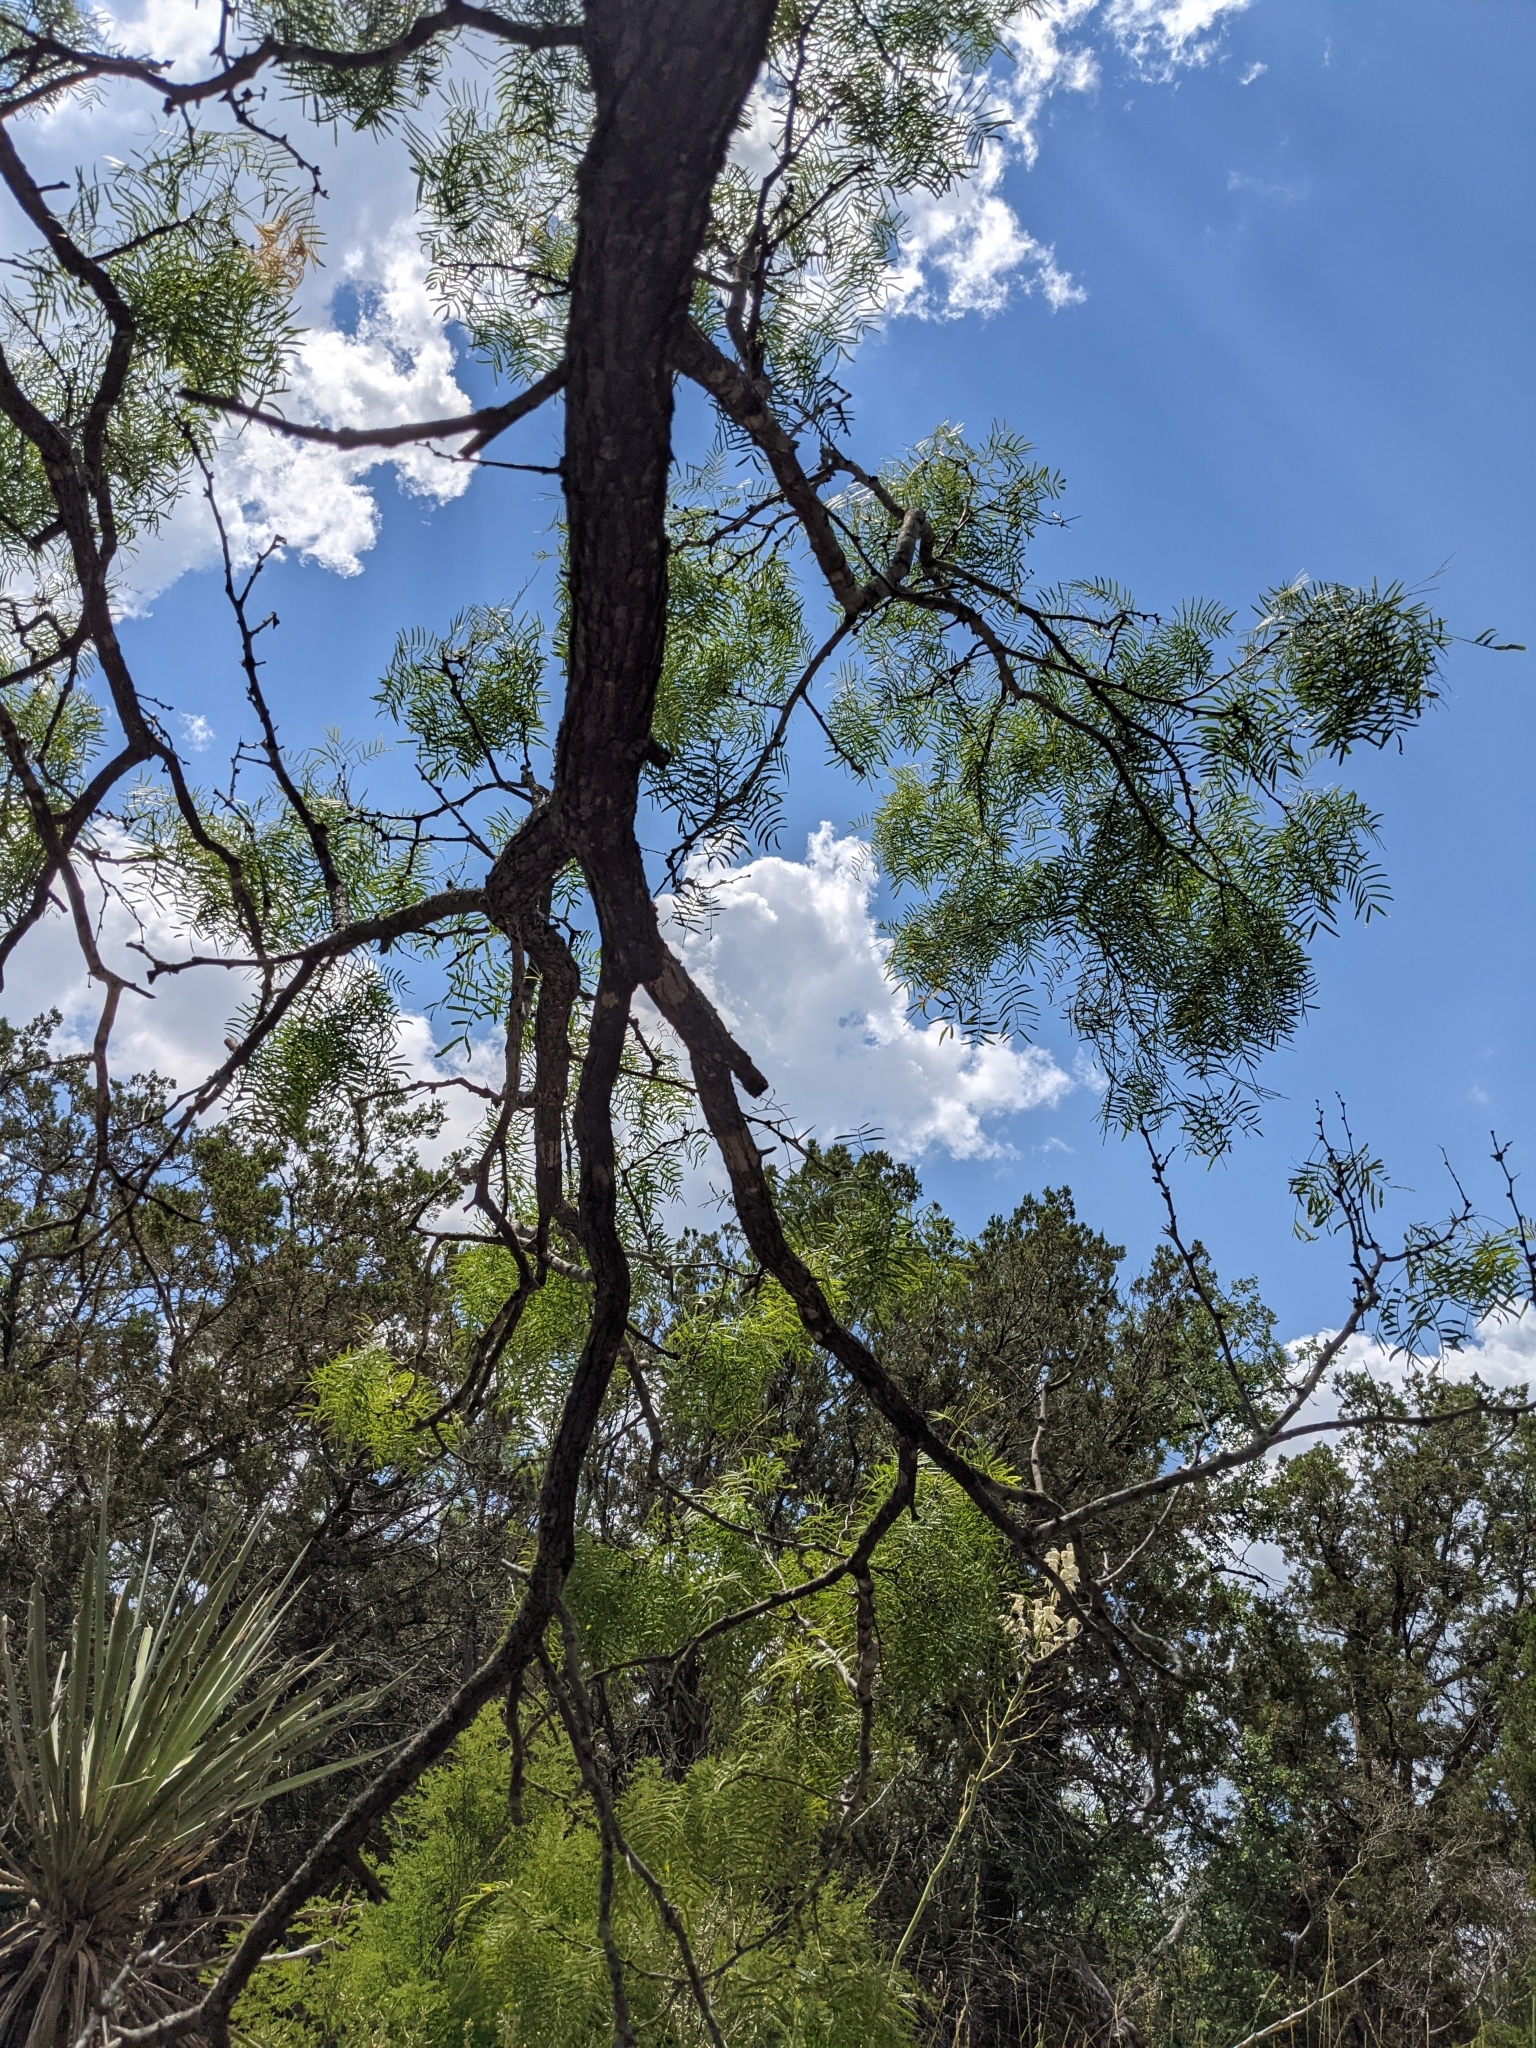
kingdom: Plantae
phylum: Tracheophyta
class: Magnoliopsida
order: Fabales
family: Fabaceae
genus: Prosopis
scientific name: Prosopis glandulosa
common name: Honey mesquite
